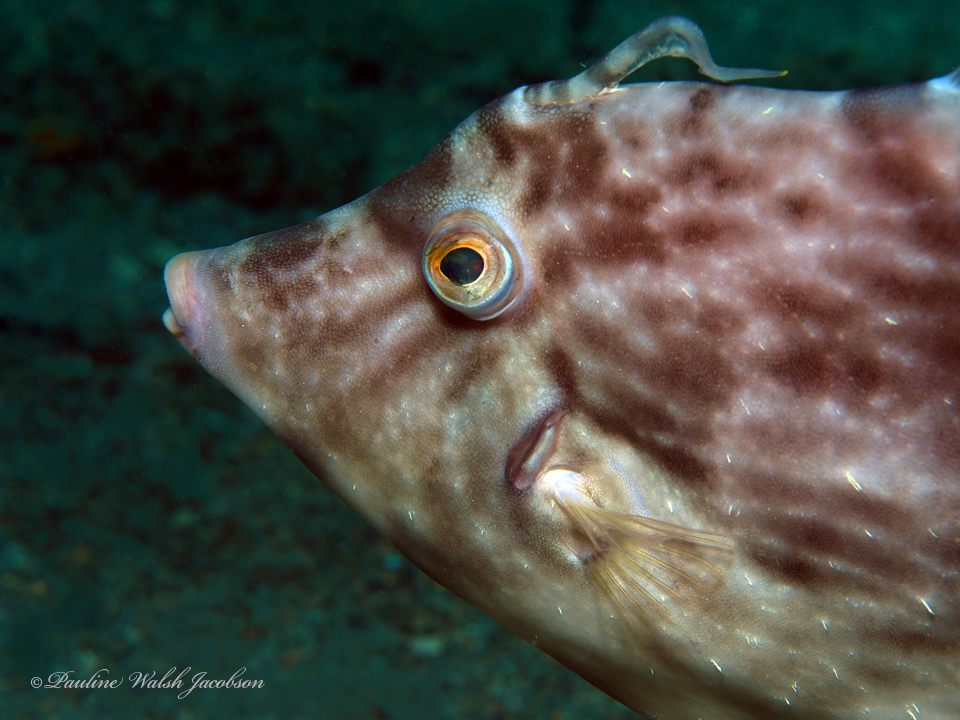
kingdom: Animalia
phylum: Chordata
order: Tetraodontiformes
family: Monacanthidae
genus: Stephanolepis
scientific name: Stephanolepis hispidus
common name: Planehead filefish
